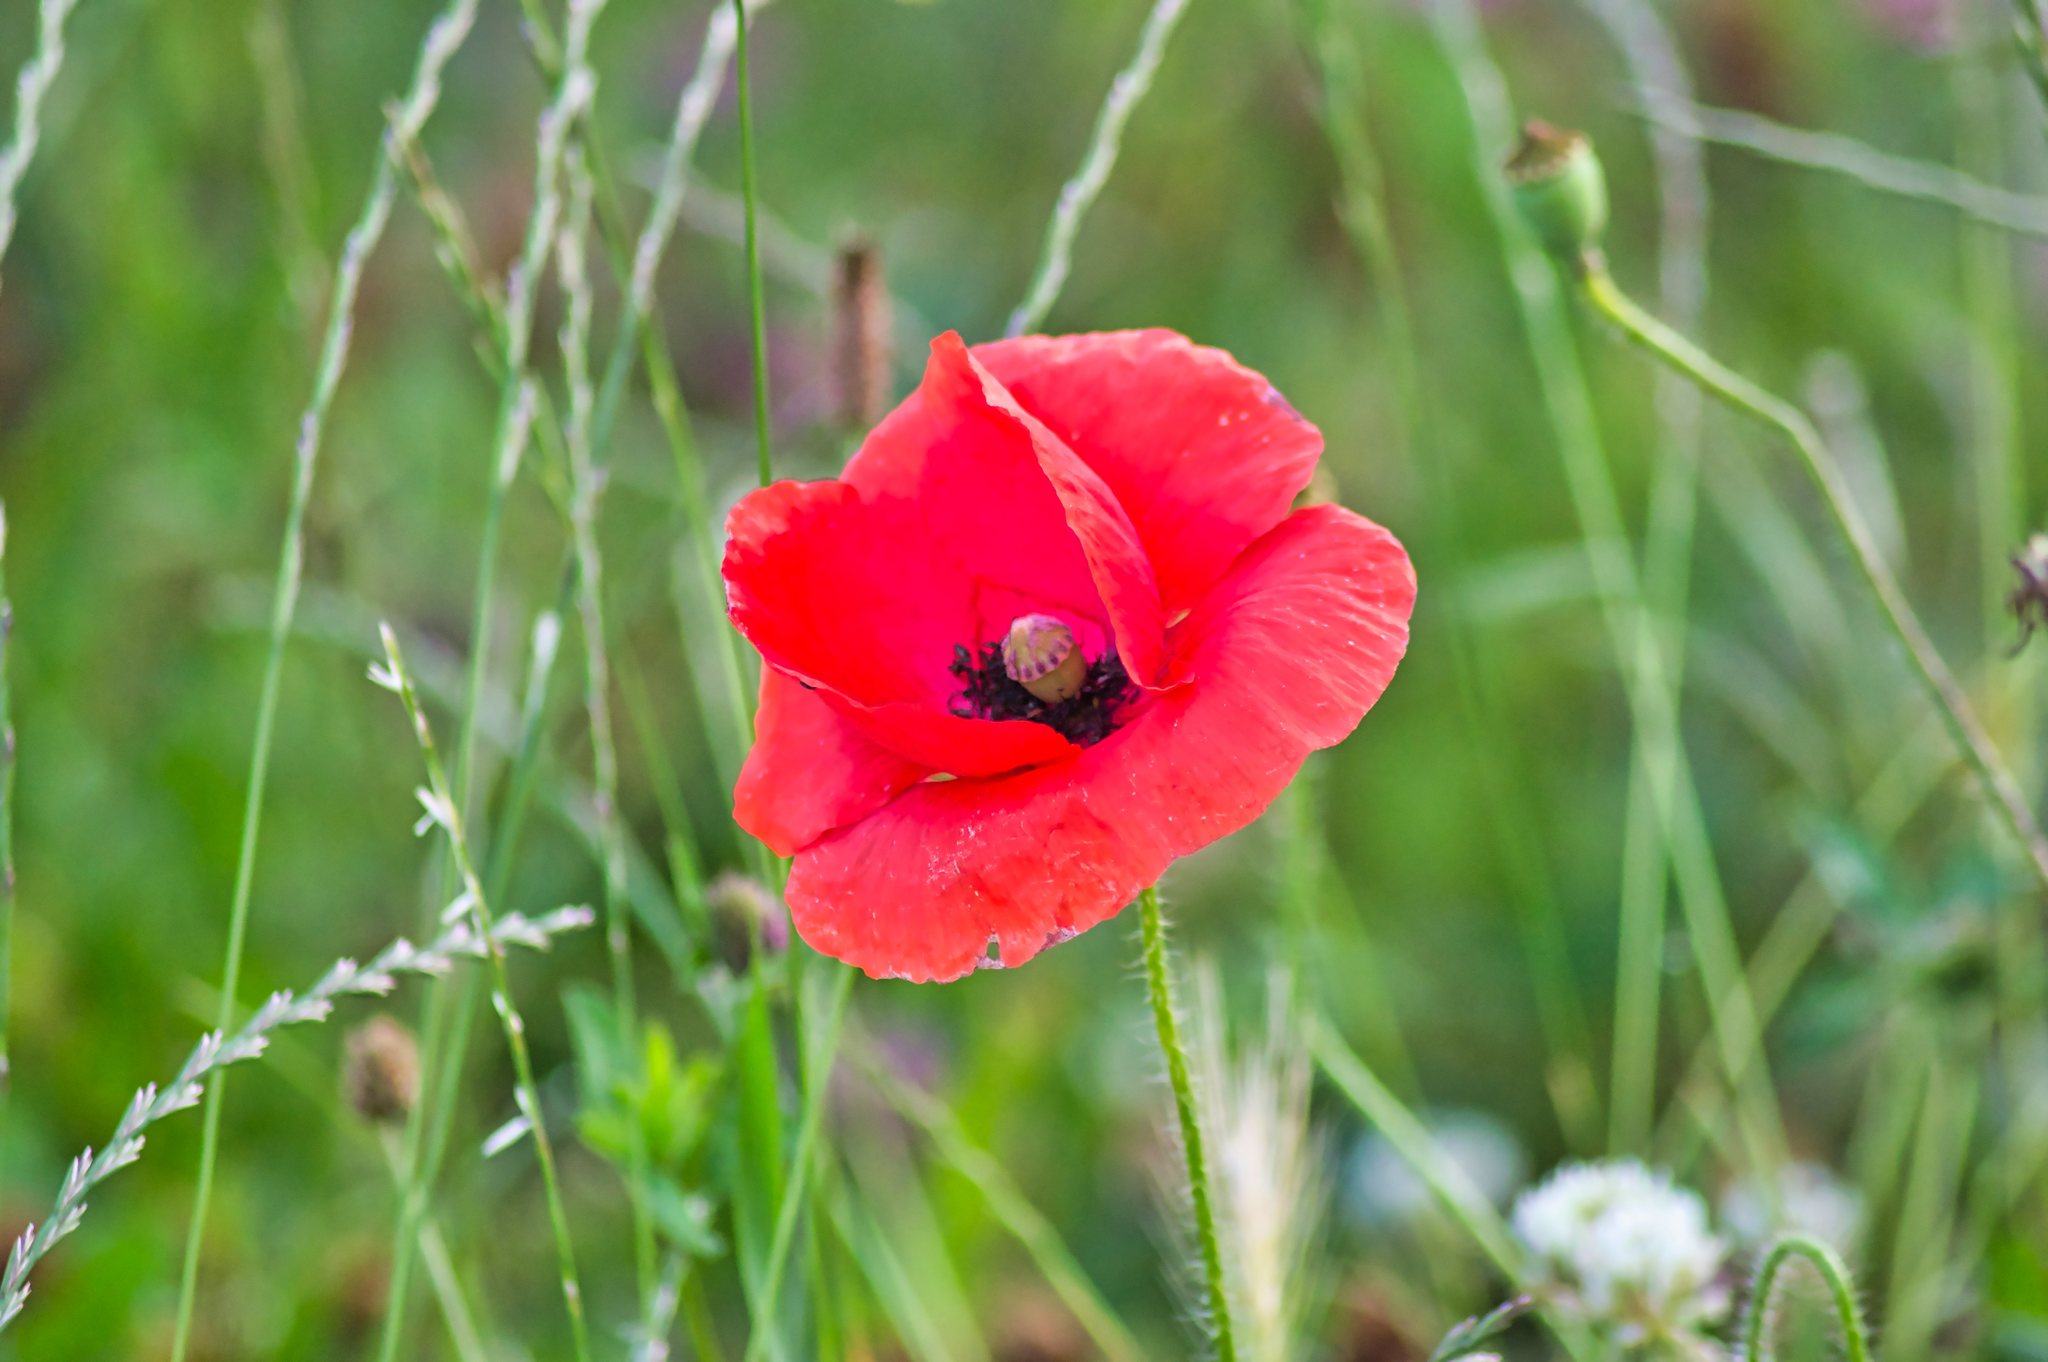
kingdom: Plantae
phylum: Tracheophyta
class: Magnoliopsida
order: Ranunculales
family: Papaveraceae
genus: Papaver
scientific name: Papaver rhoeas
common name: Corn poppy
